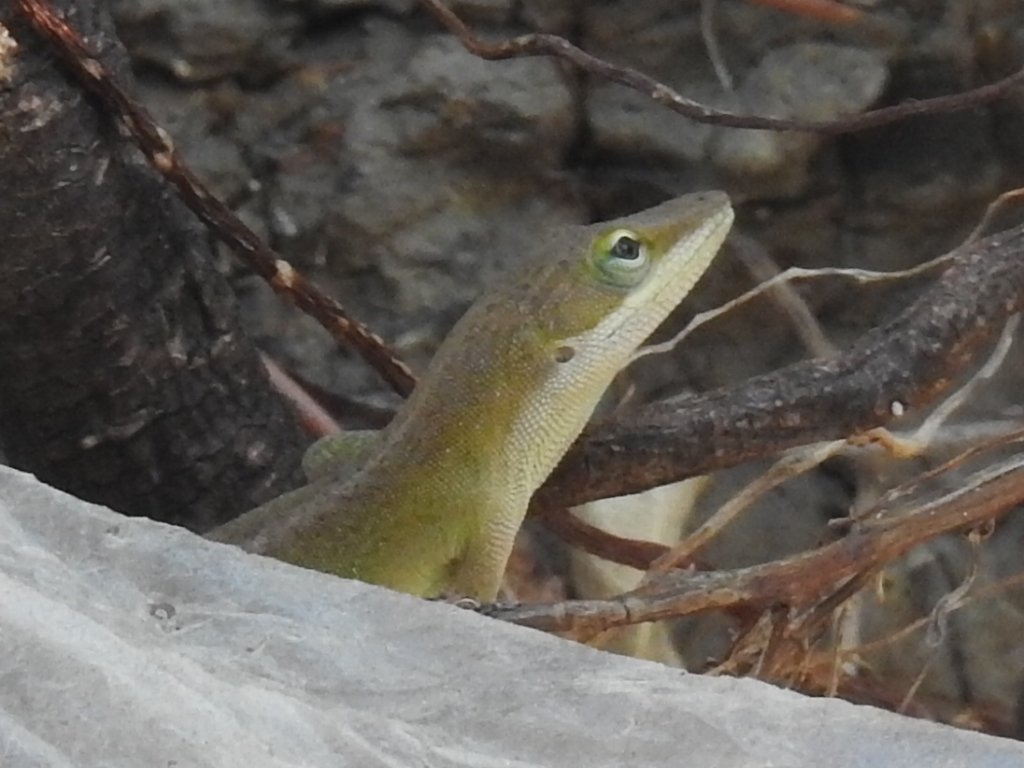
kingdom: Animalia
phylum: Chordata
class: Squamata
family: Dactyloidae
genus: Anolis
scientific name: Anolis carolinensis
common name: Green anole
